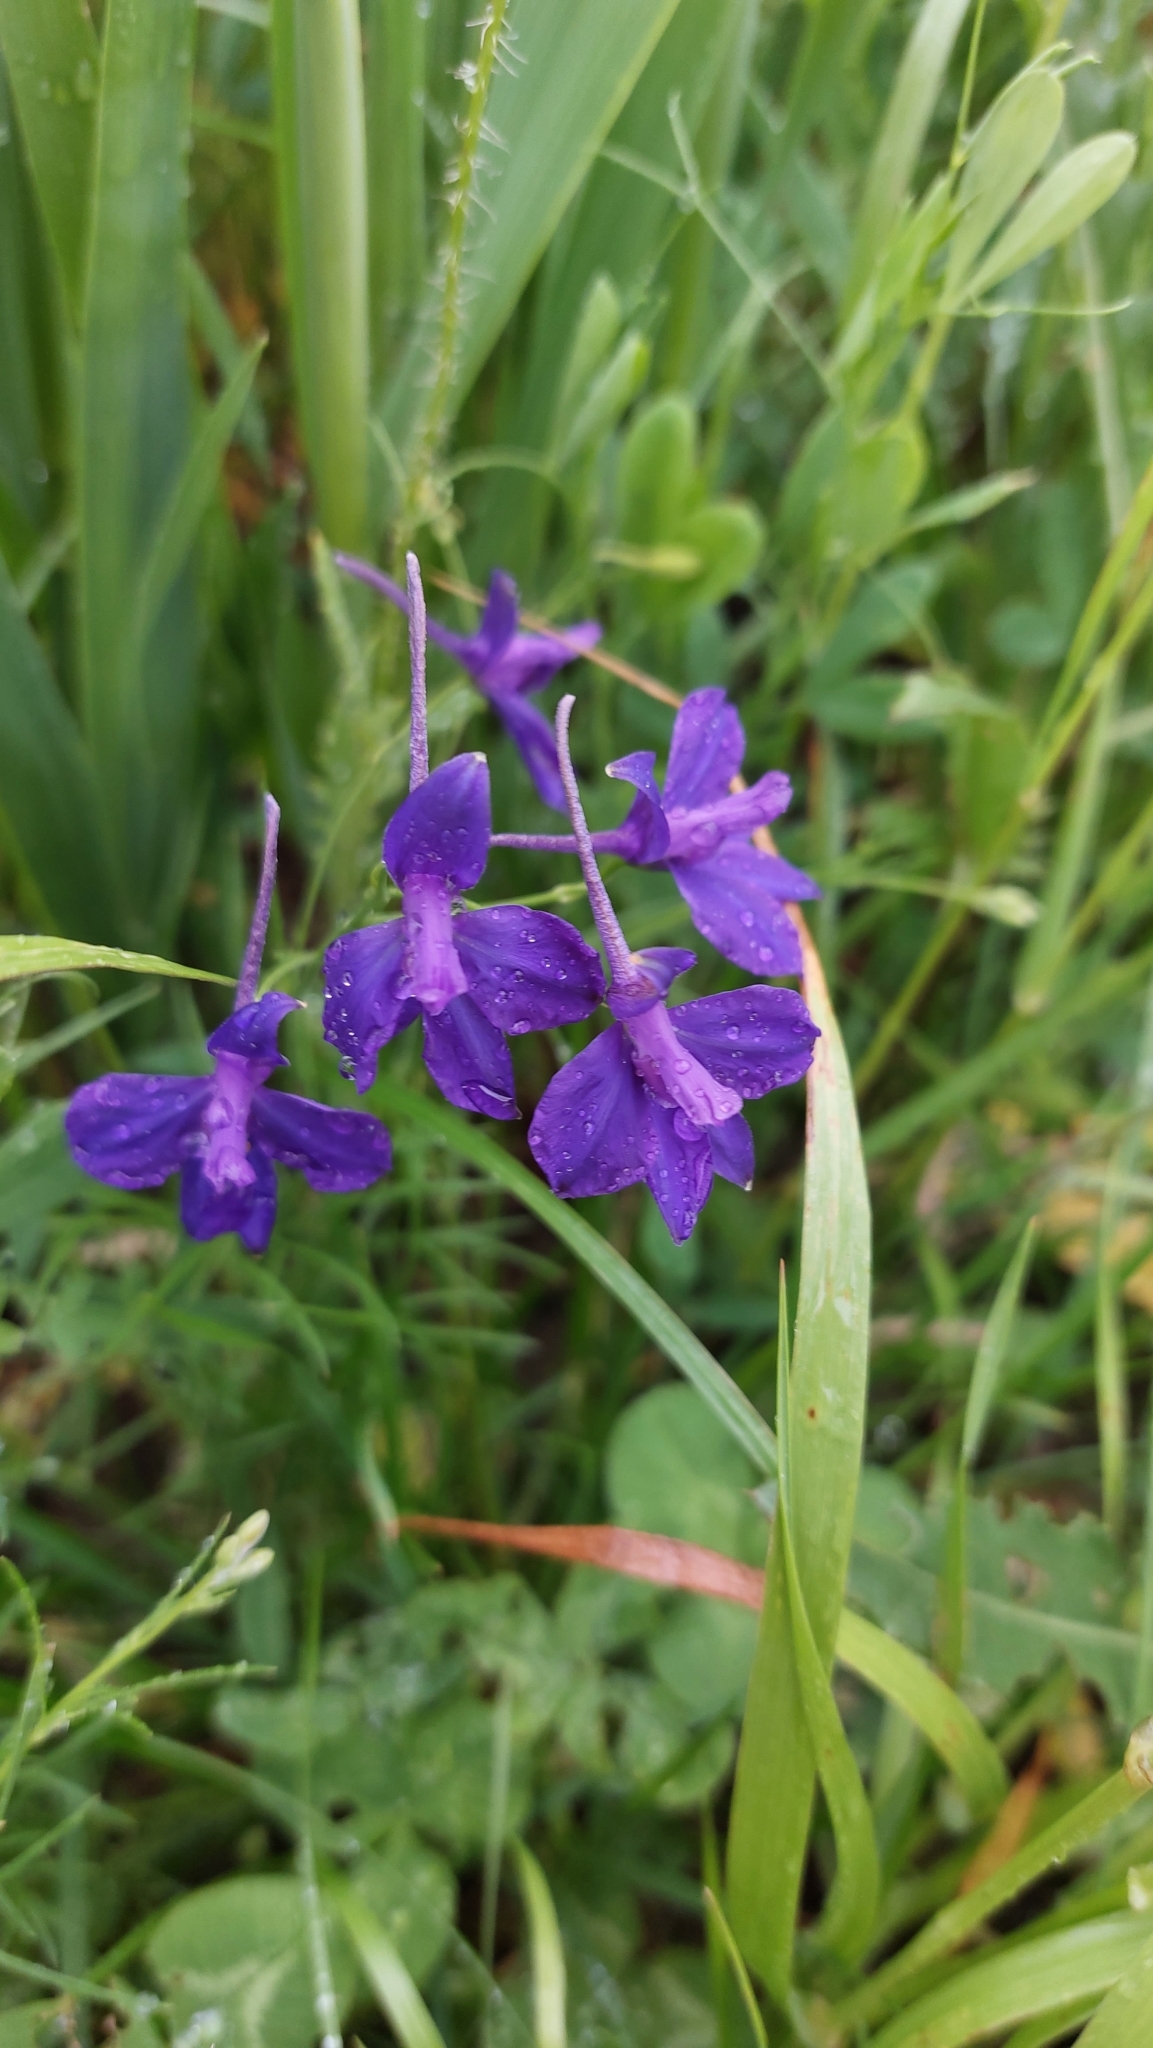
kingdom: Plantae
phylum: Tracheophyta
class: Magnoliopsida
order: Ranunculales
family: Ranunculaceae
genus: Delphinium
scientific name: Delphinium consolida
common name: Branching larkspur
